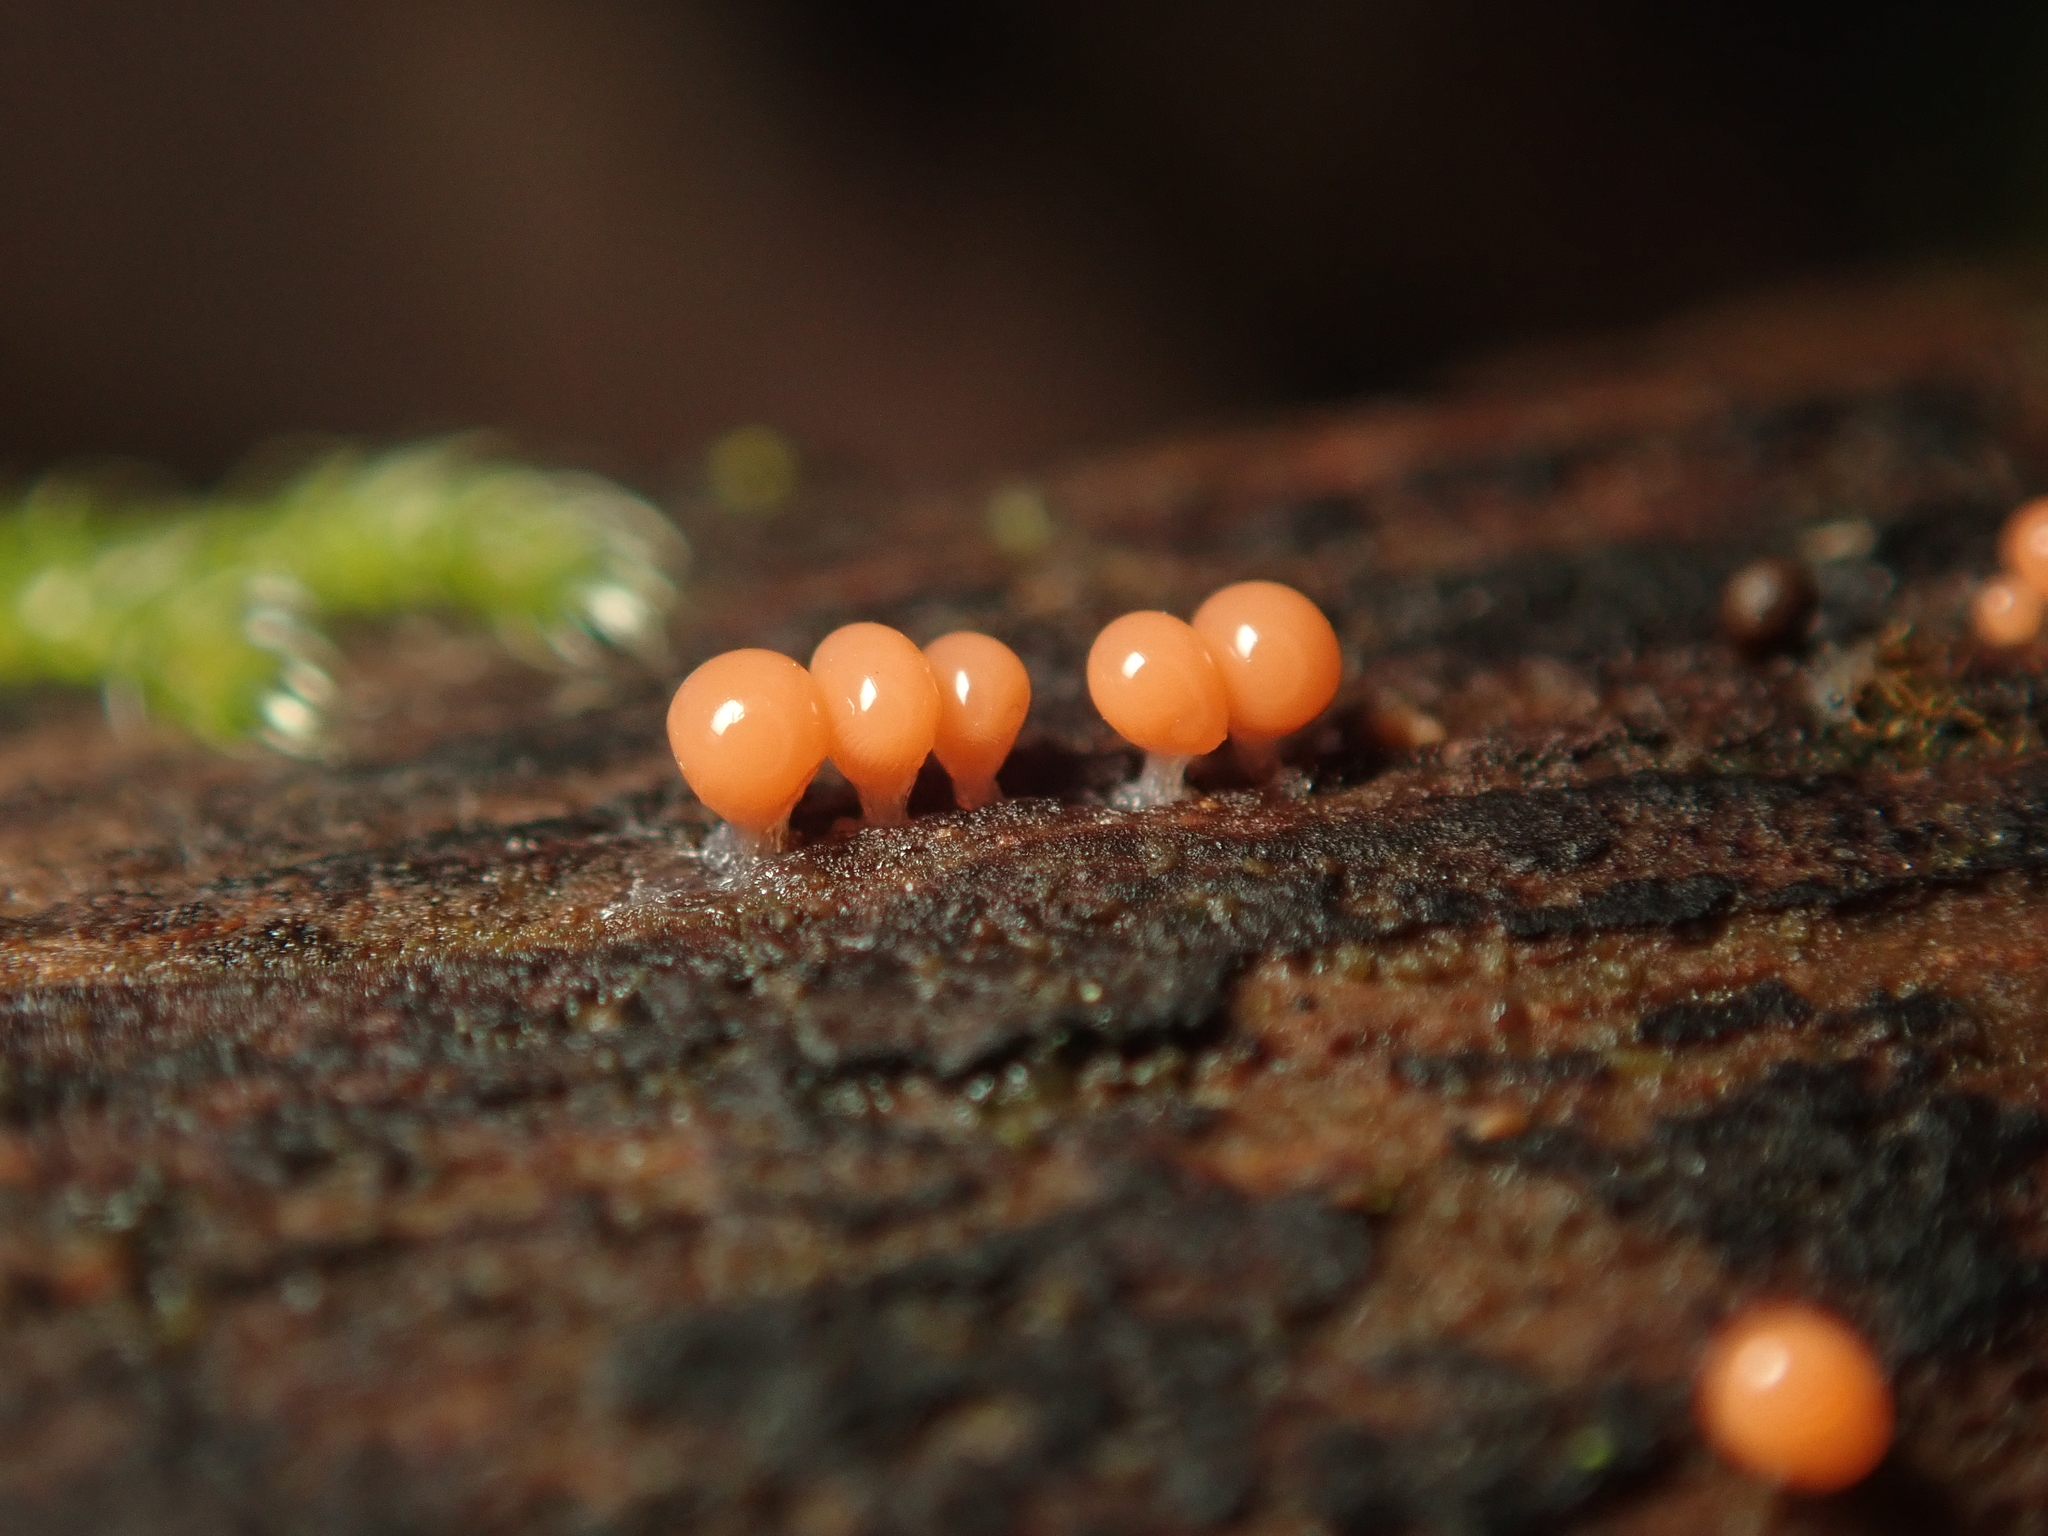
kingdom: Protozoa
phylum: Mycetozoa
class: Myxomycetes
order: Trichiales
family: Arcyriaceae
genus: Hemitrichia
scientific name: Hemitrichia decipiens
